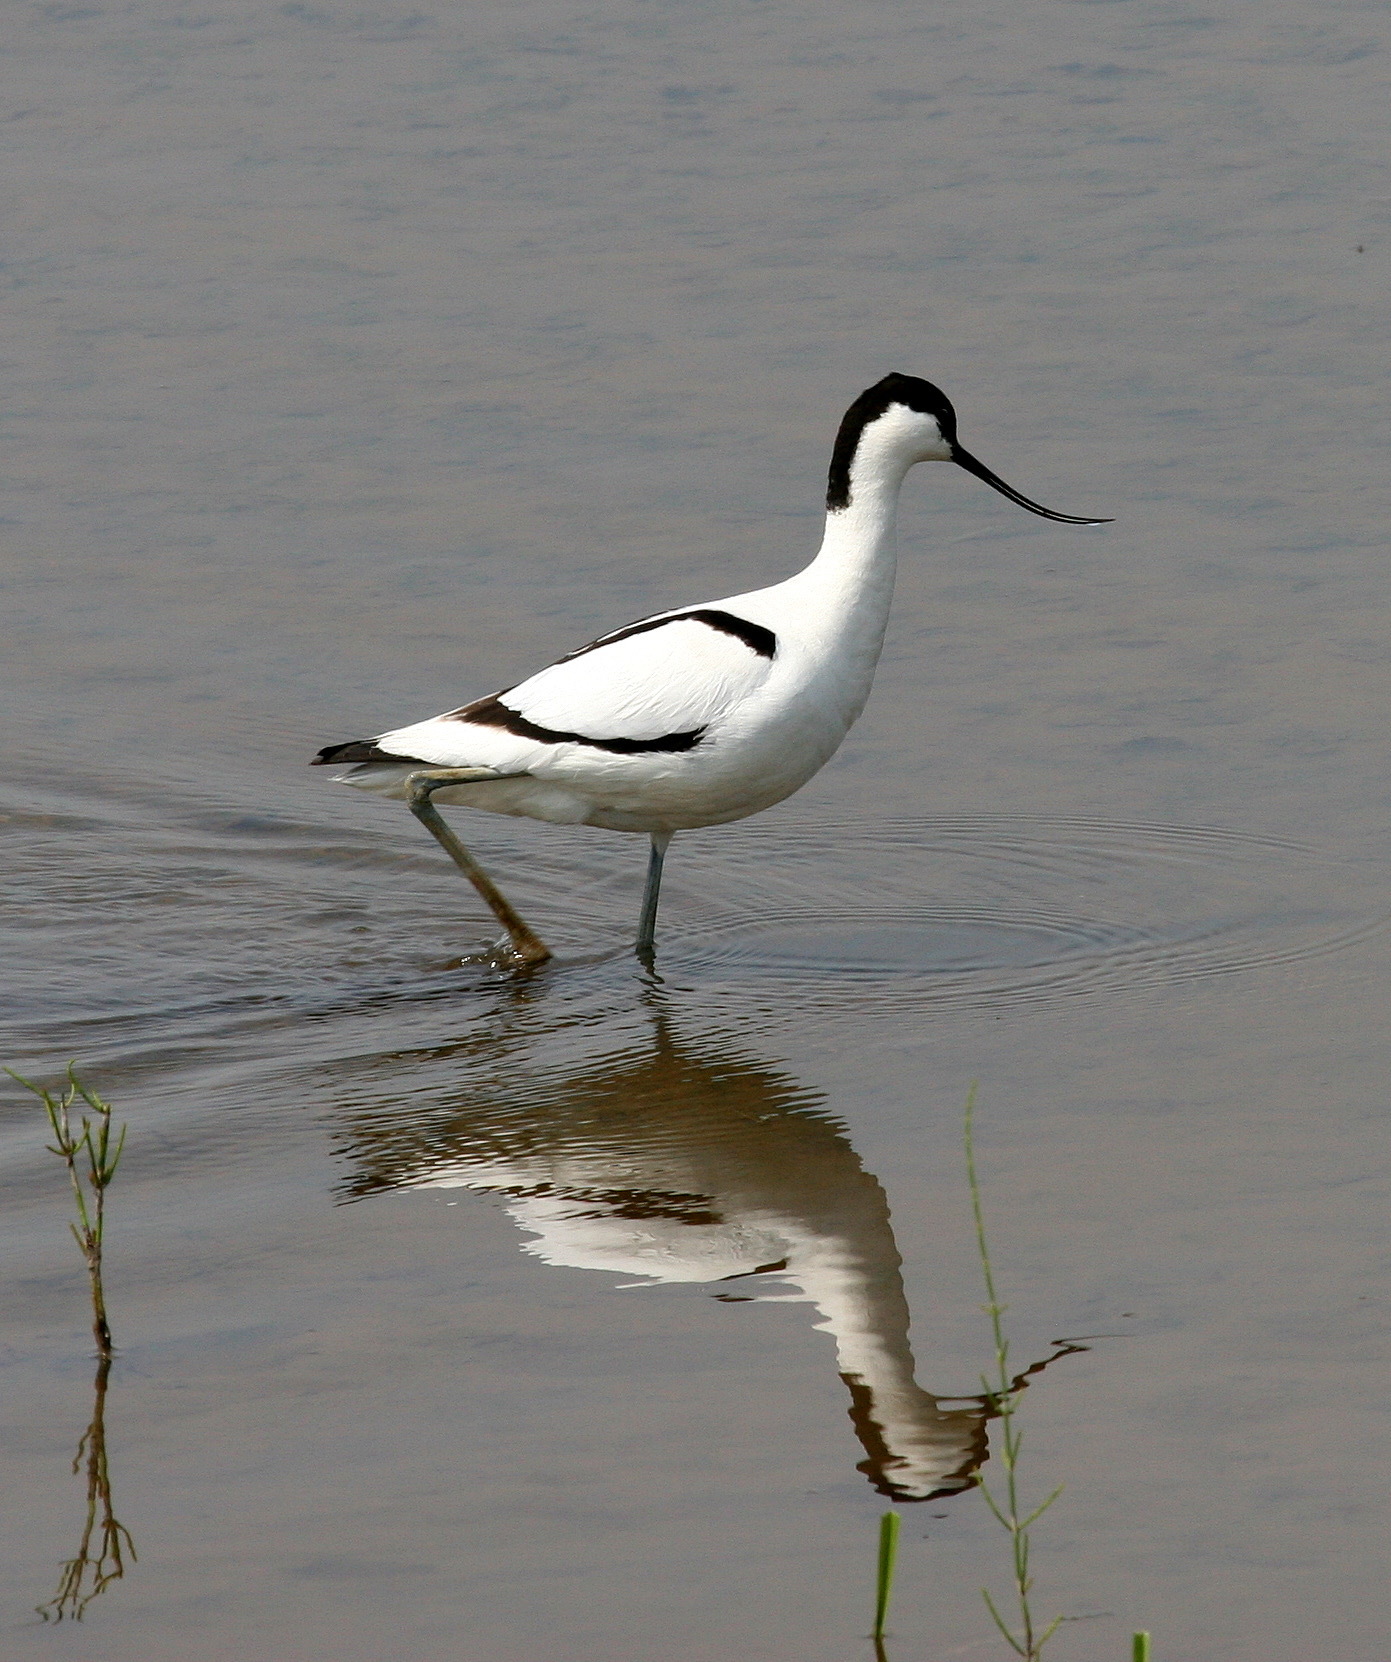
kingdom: Animalia
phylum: Chordata
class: Aves
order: Charadriiformes
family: Recurvirostridae
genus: Recurvirostra
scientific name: Recurvirostra avosetta
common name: Pied avocet
